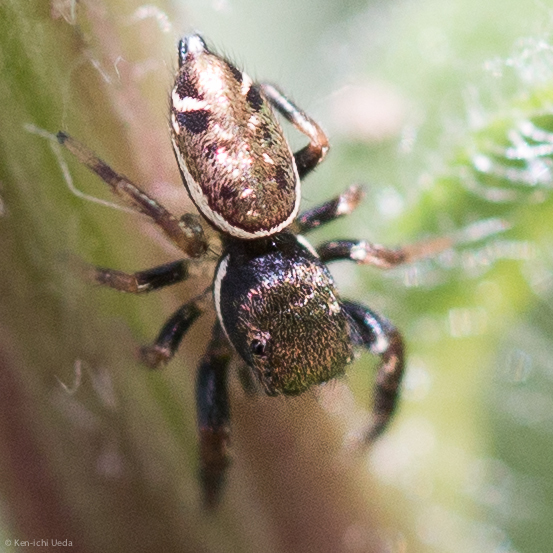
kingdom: Animalia
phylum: Arthropoda
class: Arachnida
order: Araneae
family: Salticidae
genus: Sassacus
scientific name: Sassacus vitis
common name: Jumping spiders
